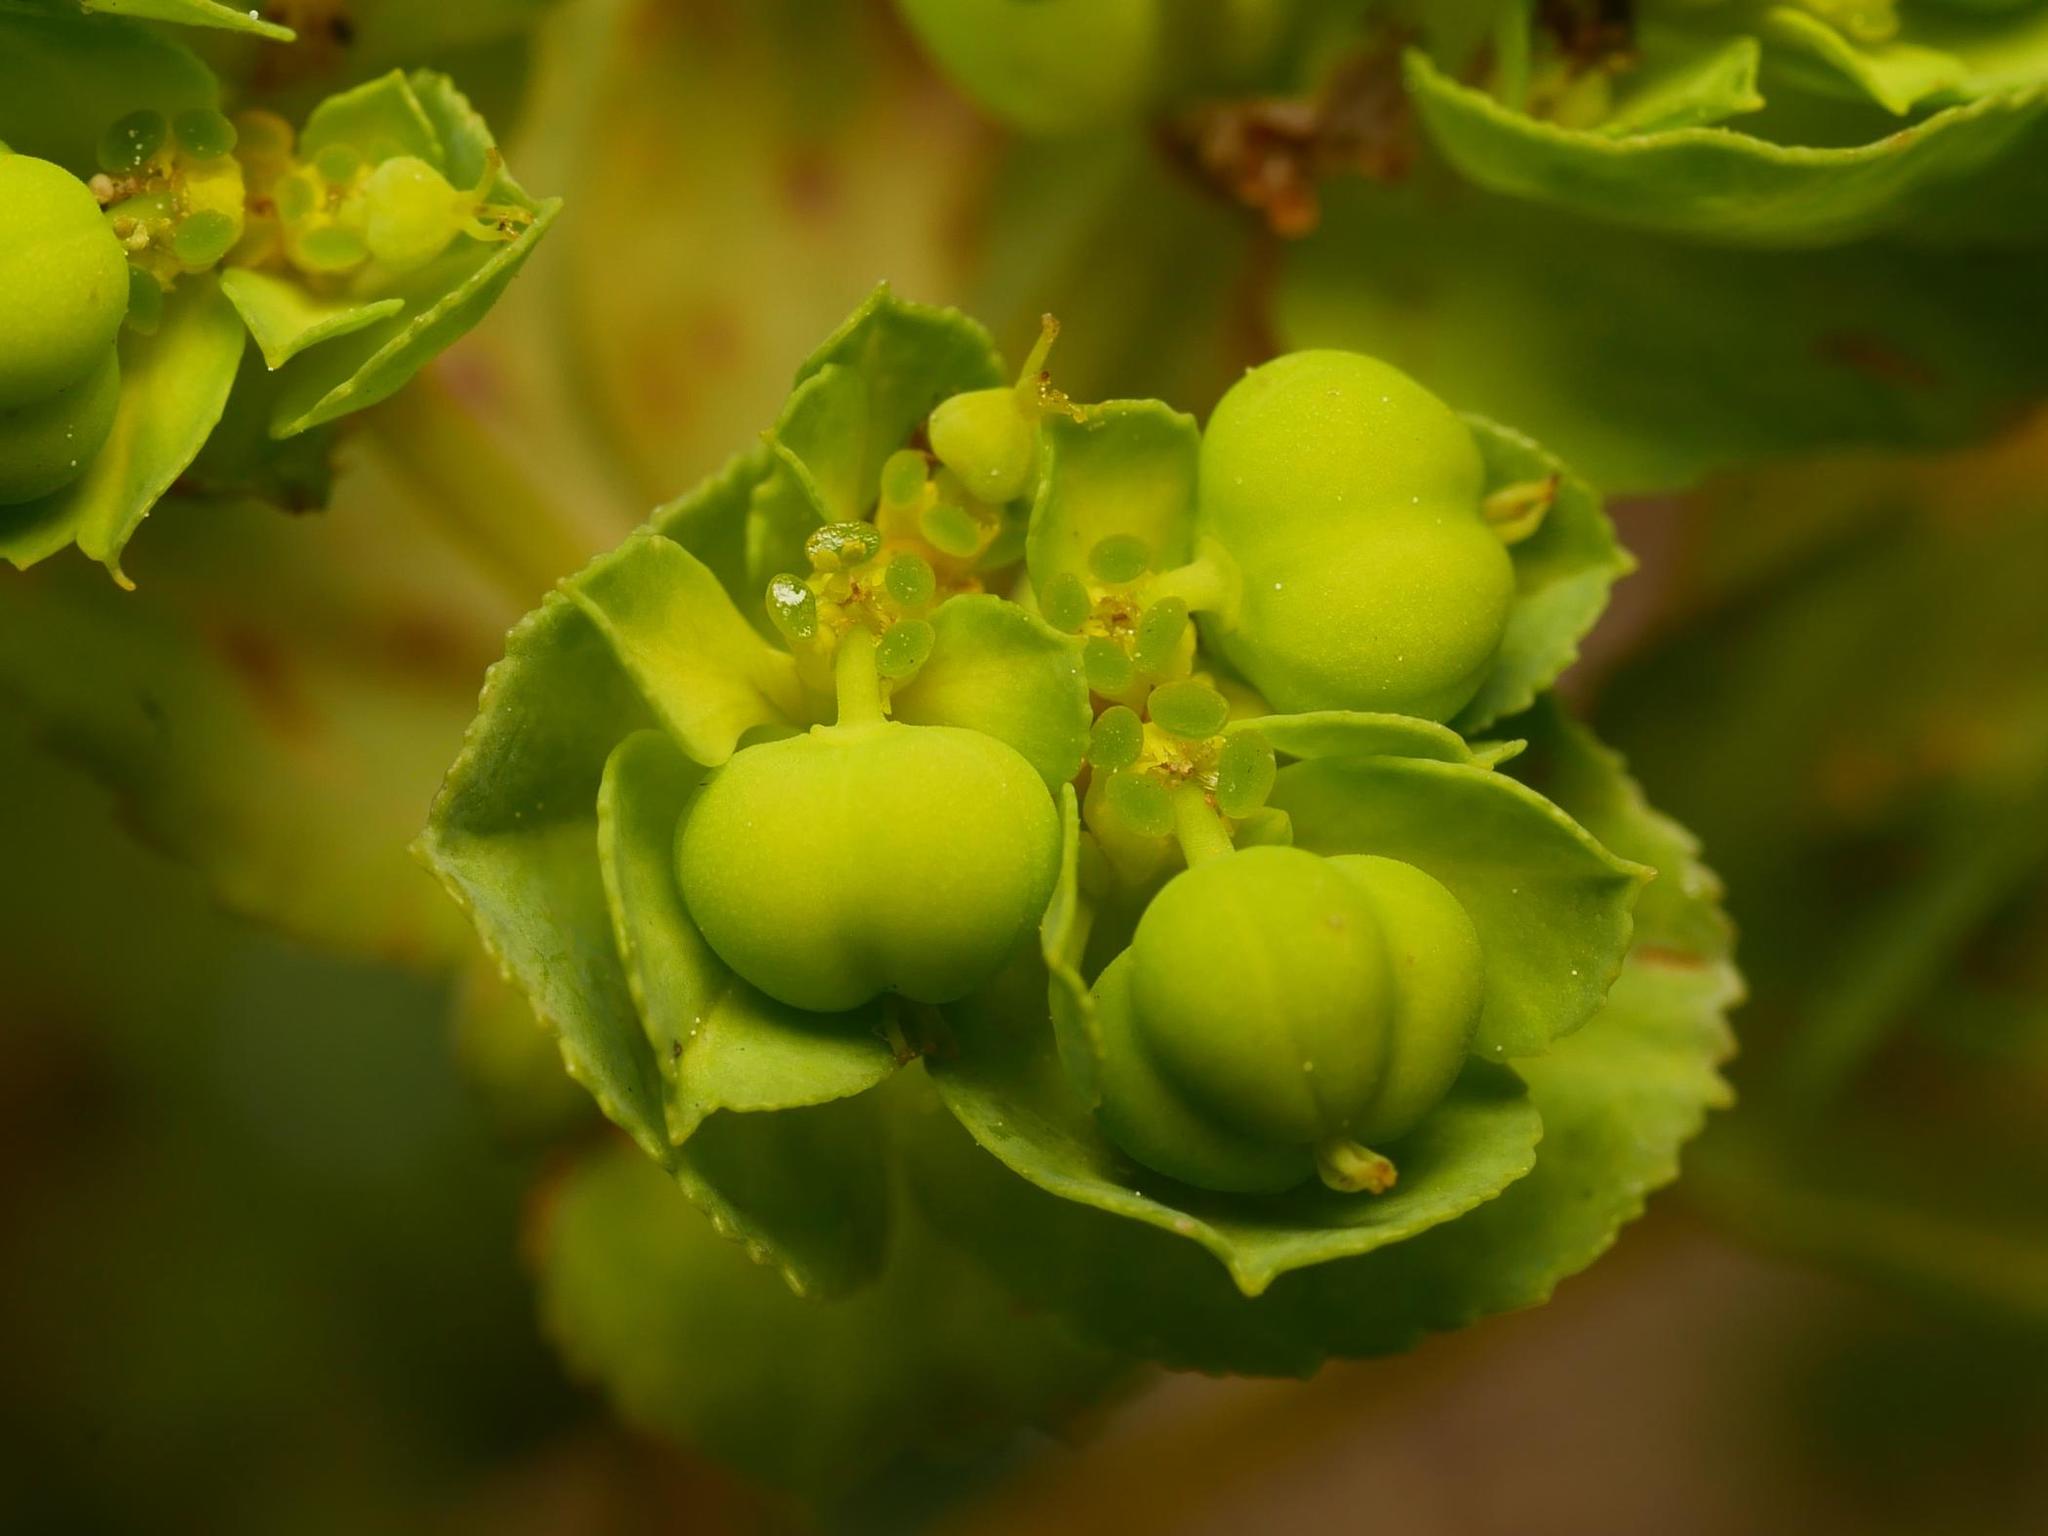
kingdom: Plantae
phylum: Tracheophyta
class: Magnoliopsida
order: Malpighiales
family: Euphorbiaceae
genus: Euphorbia
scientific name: Euphorbia helioscopia
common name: Sun spurge
